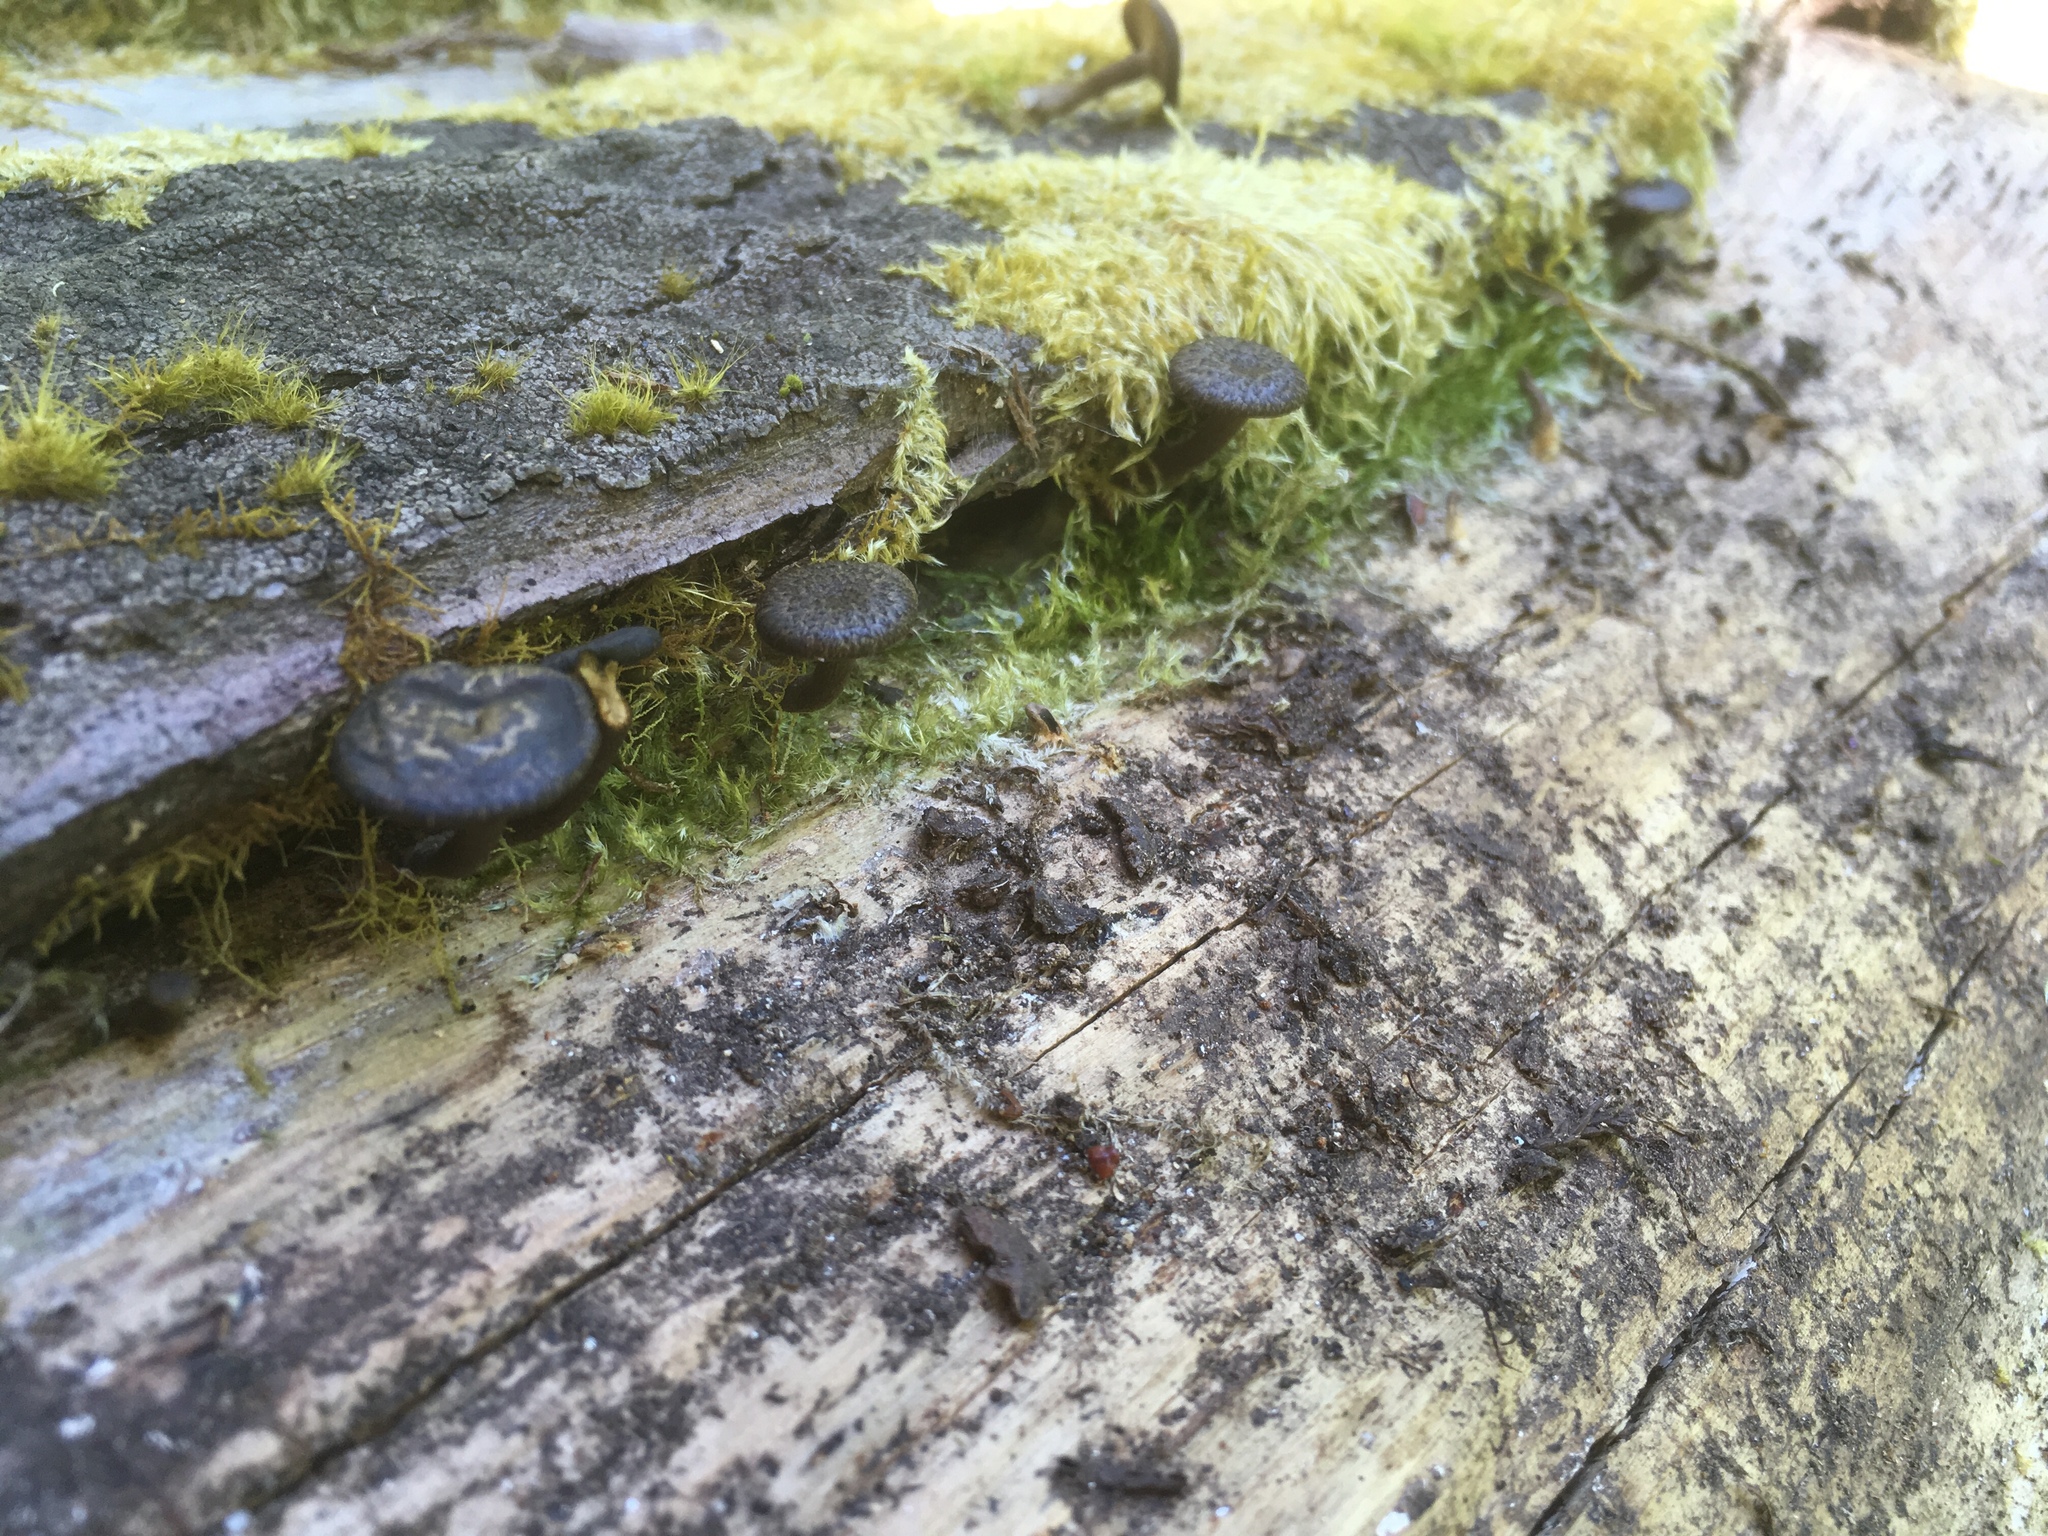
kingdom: Fungi
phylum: Basidiomycota
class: Agaricomycetes
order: Polyporales
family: Polyporaceae
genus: Lentinus
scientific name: Lentinus arcularius
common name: Spring polypore
